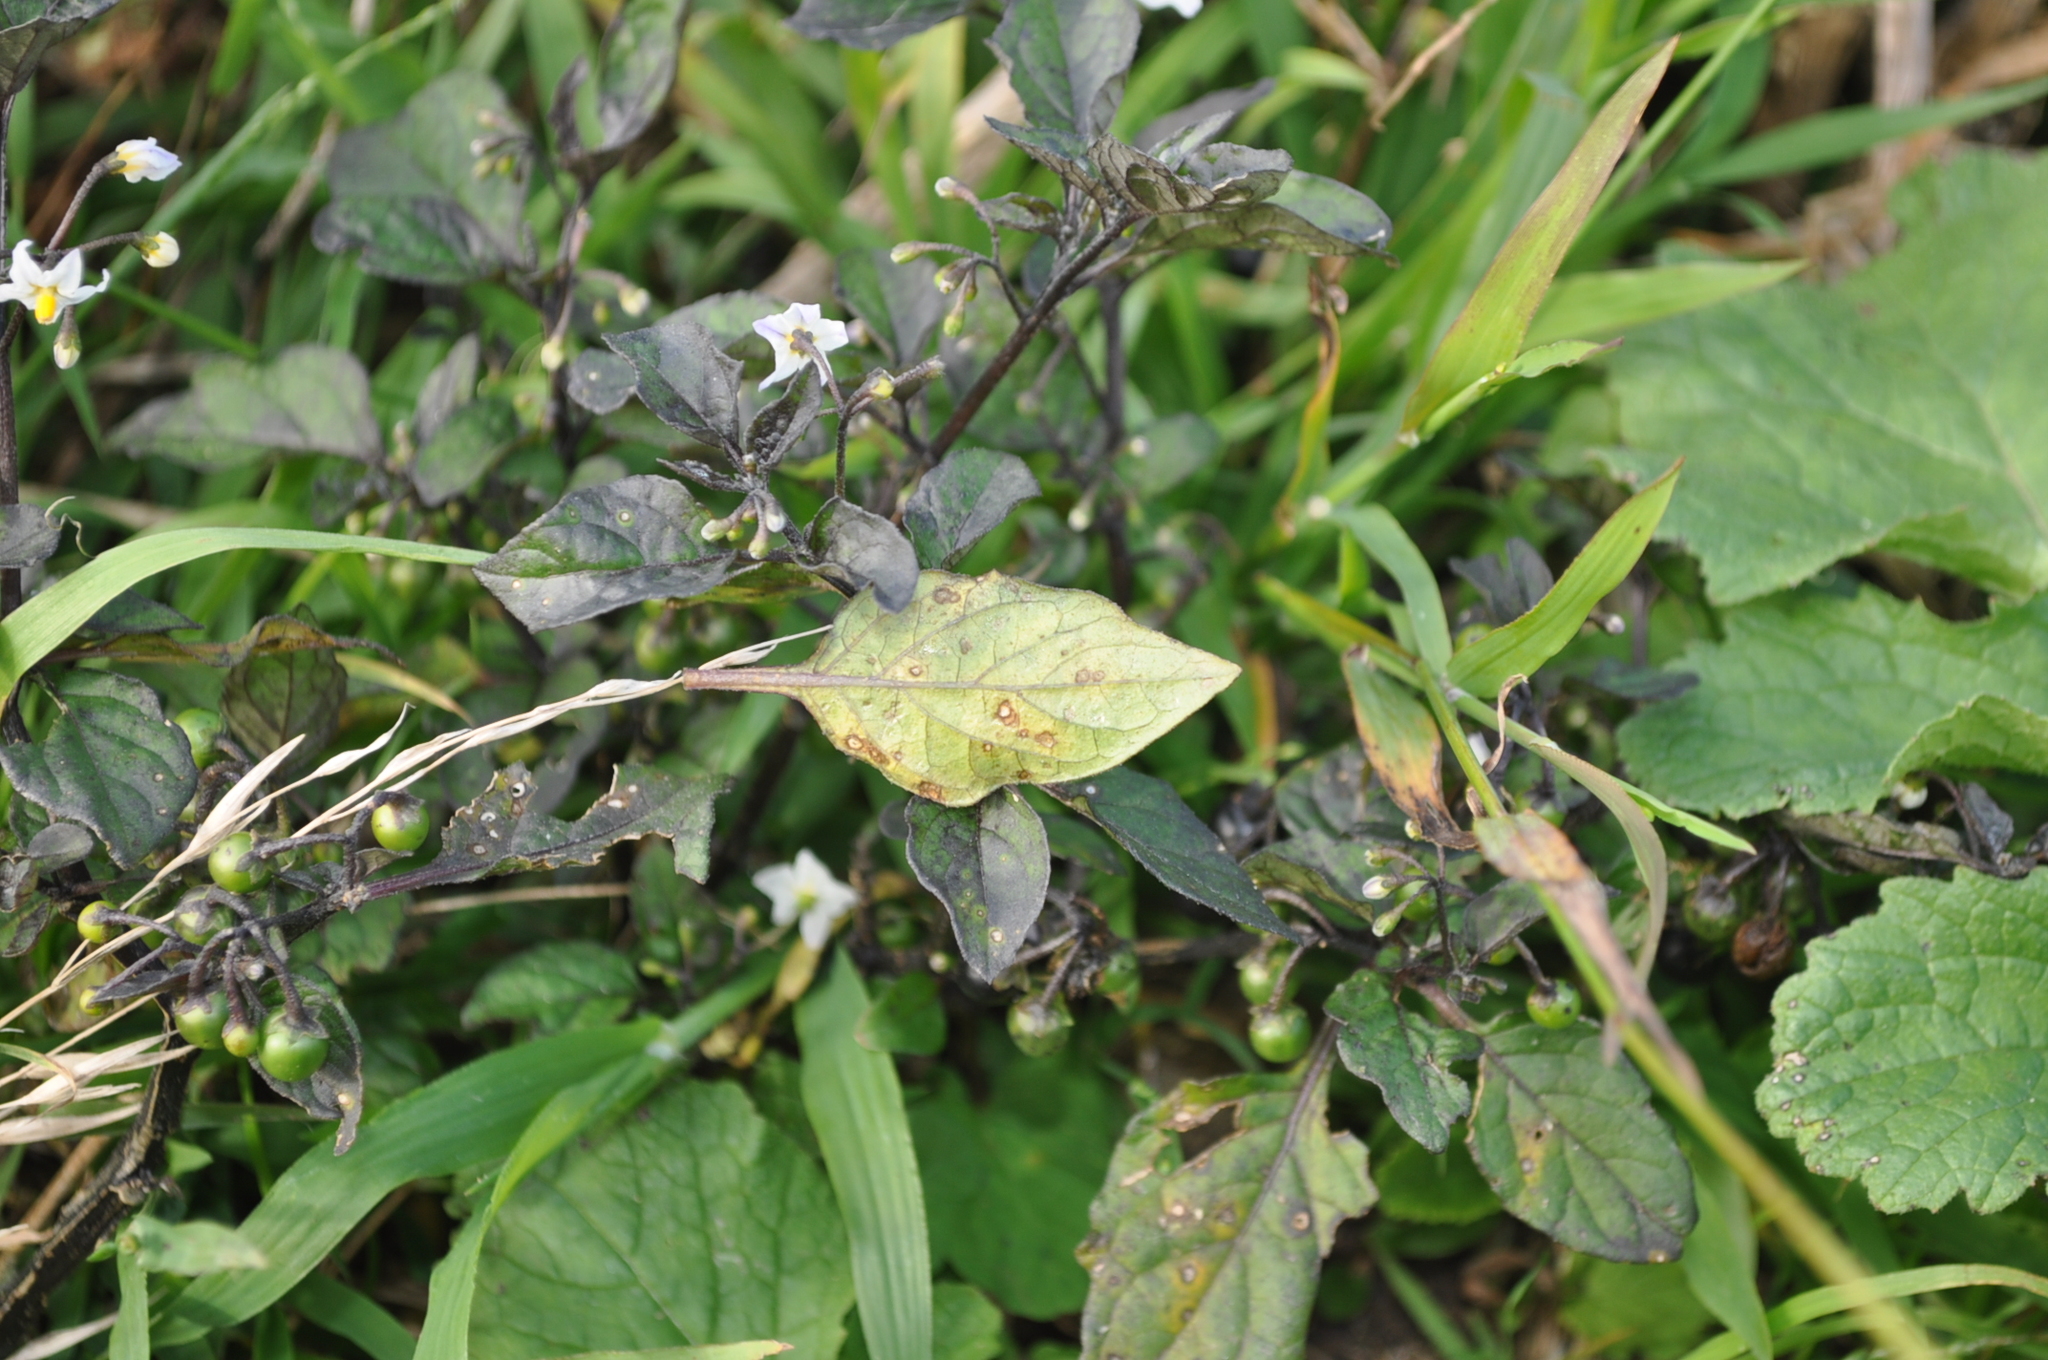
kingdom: Plantae
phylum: Tracheophyta
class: Magnoliopsida
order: Solanales
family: Solanaceae
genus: Solanum
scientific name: Solanum nigrum
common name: Black nightshade
